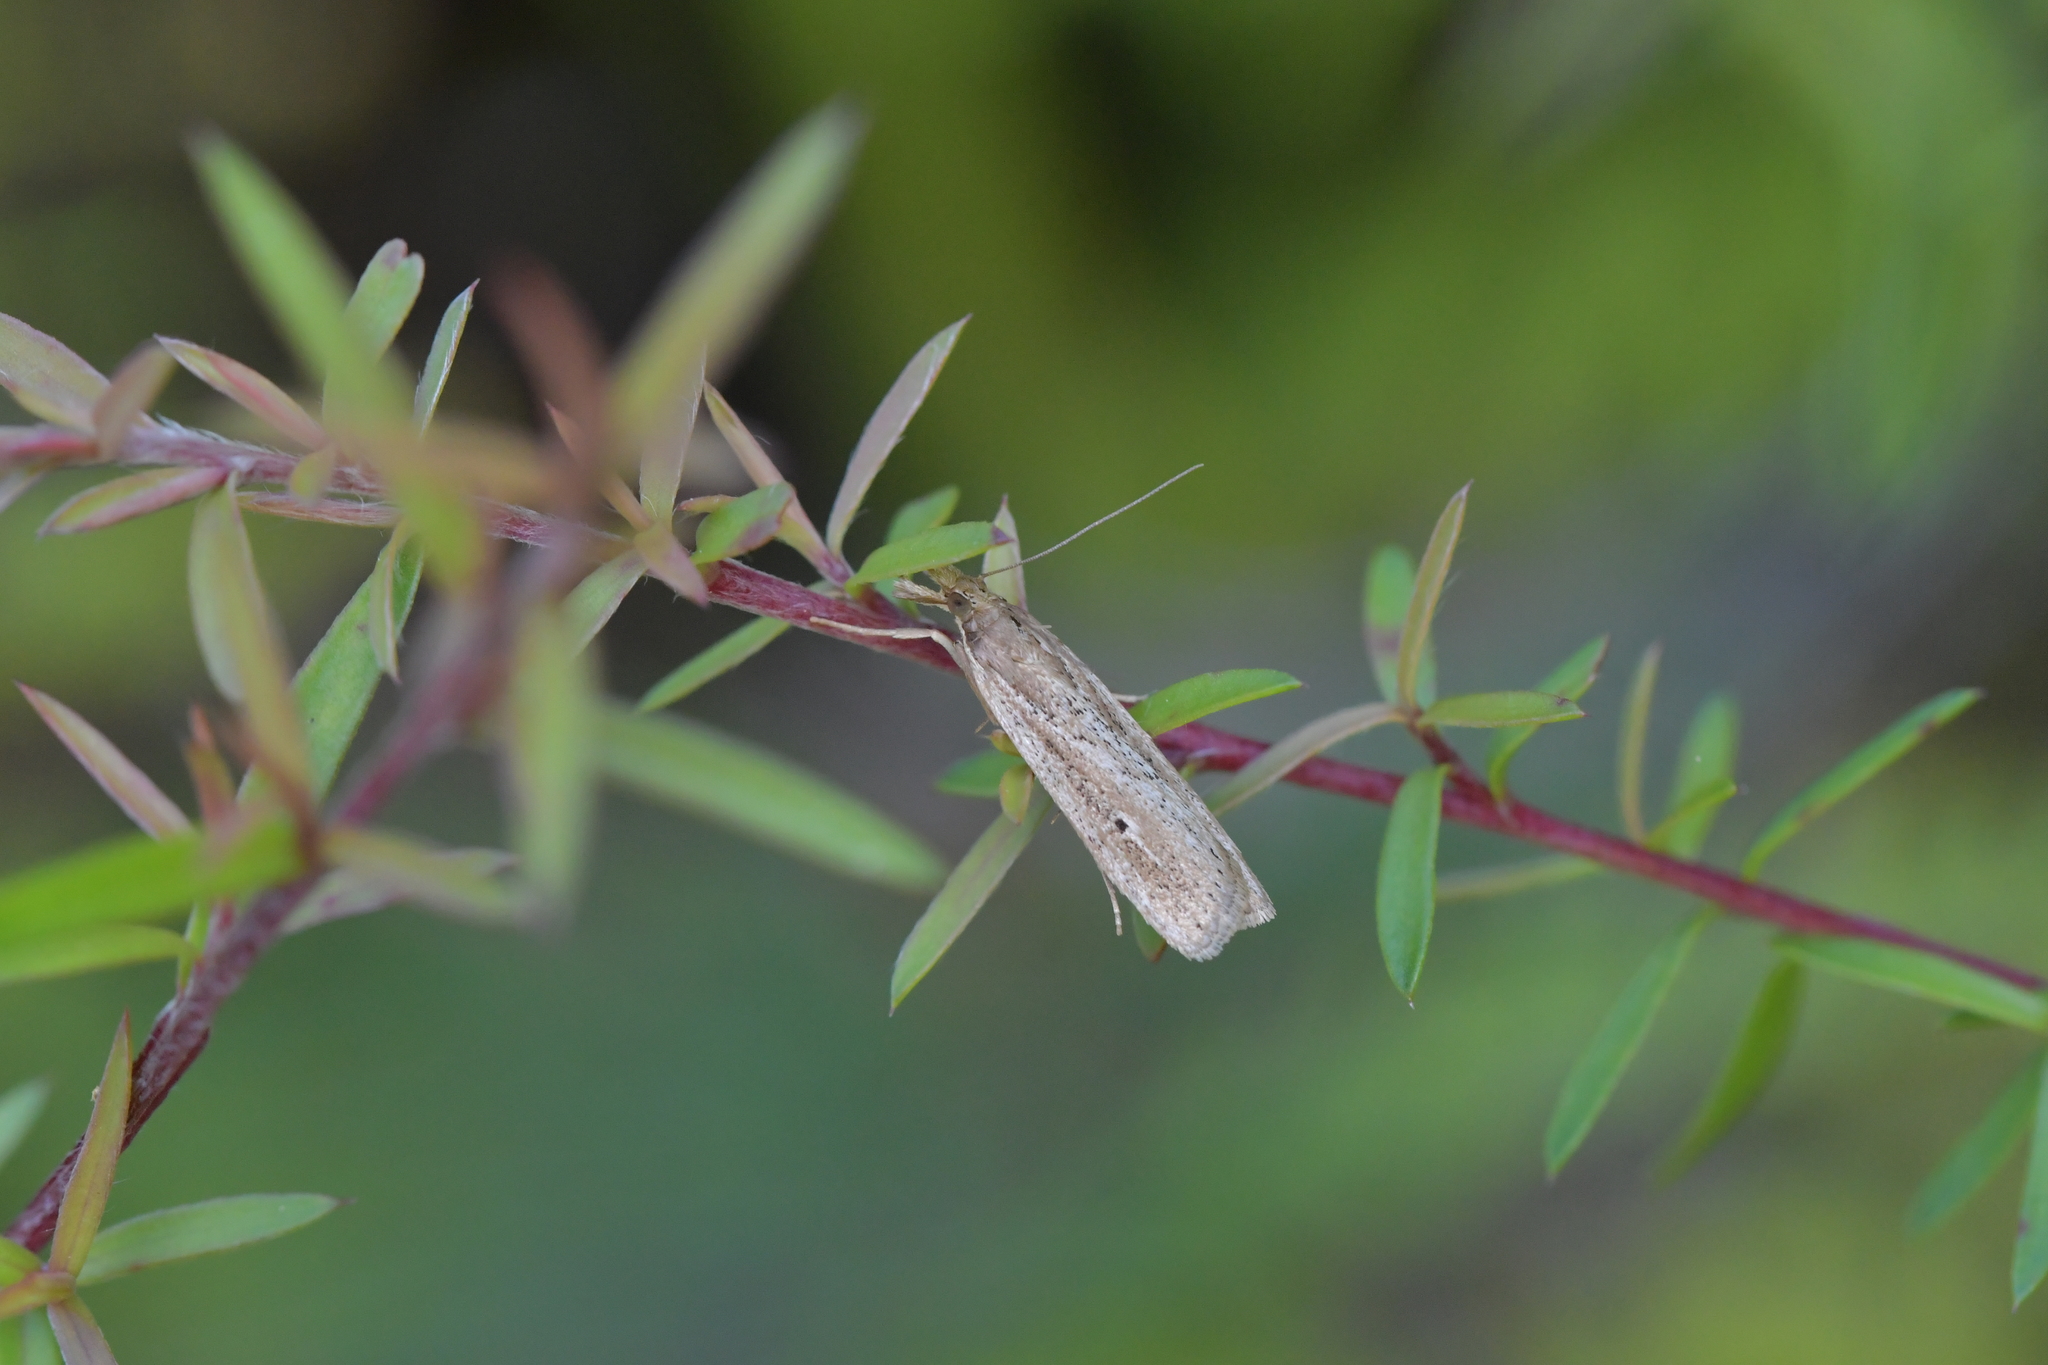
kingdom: Animalia
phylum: Arthropoda
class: Insecta
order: Lepidoptera
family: Crambidae
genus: Eudonia
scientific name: Eudonia sabulosella
